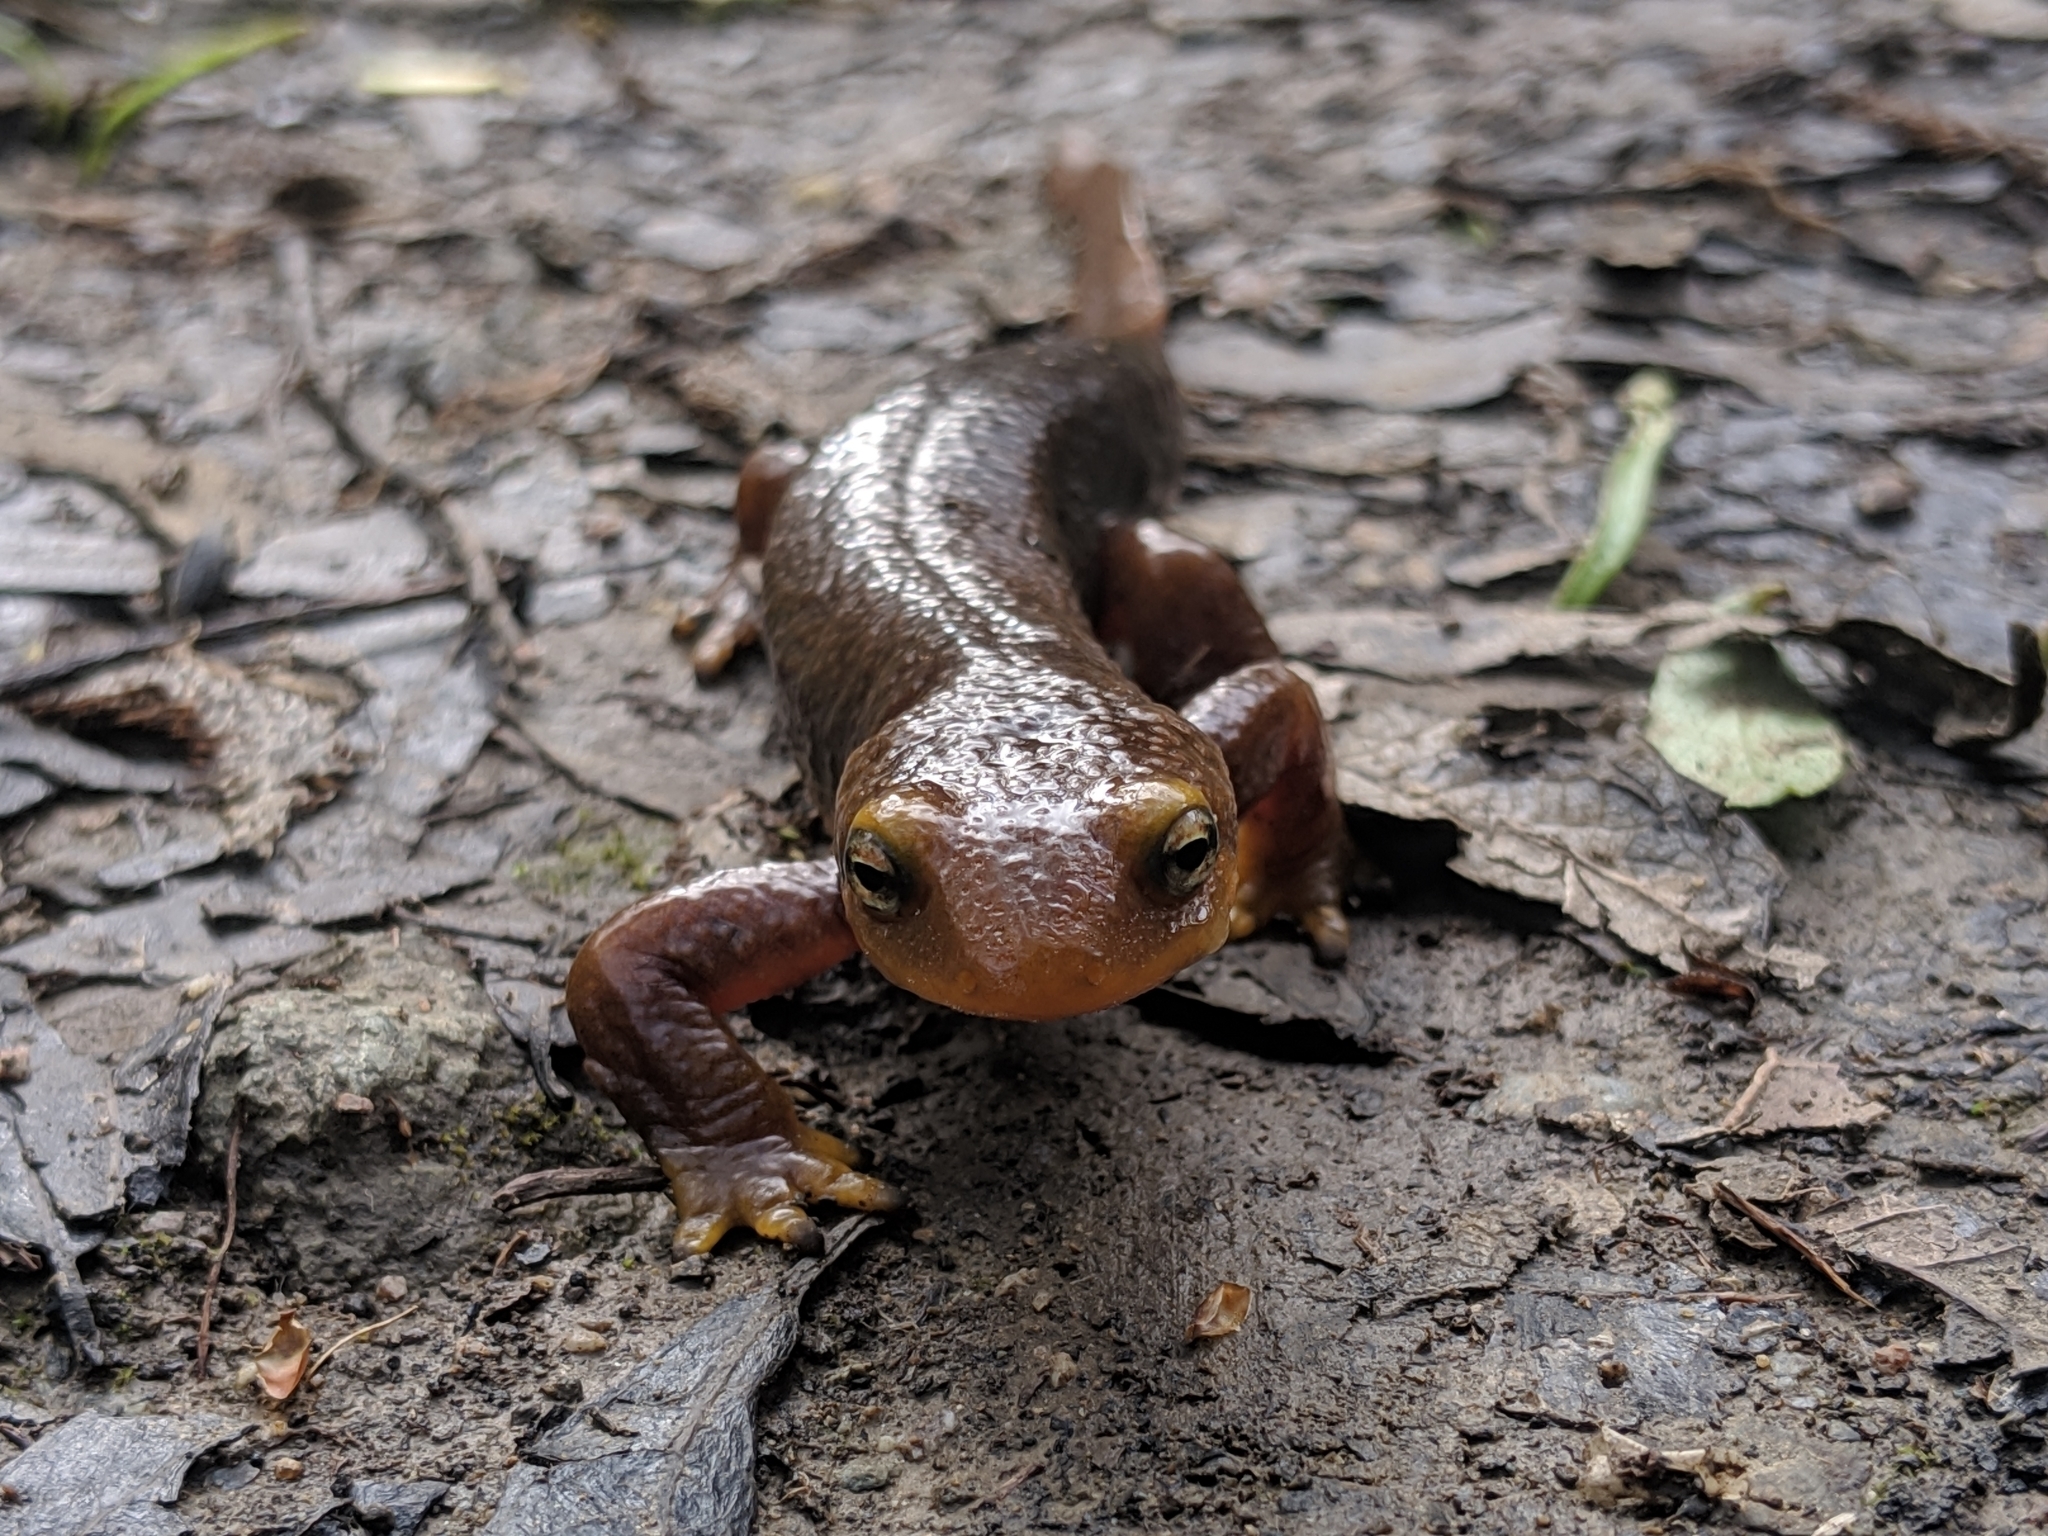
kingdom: Animalia
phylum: Chordata
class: Amphibia
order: Caudata
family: Salamandridae
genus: Taricha
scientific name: Taricha torosa
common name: California newt
